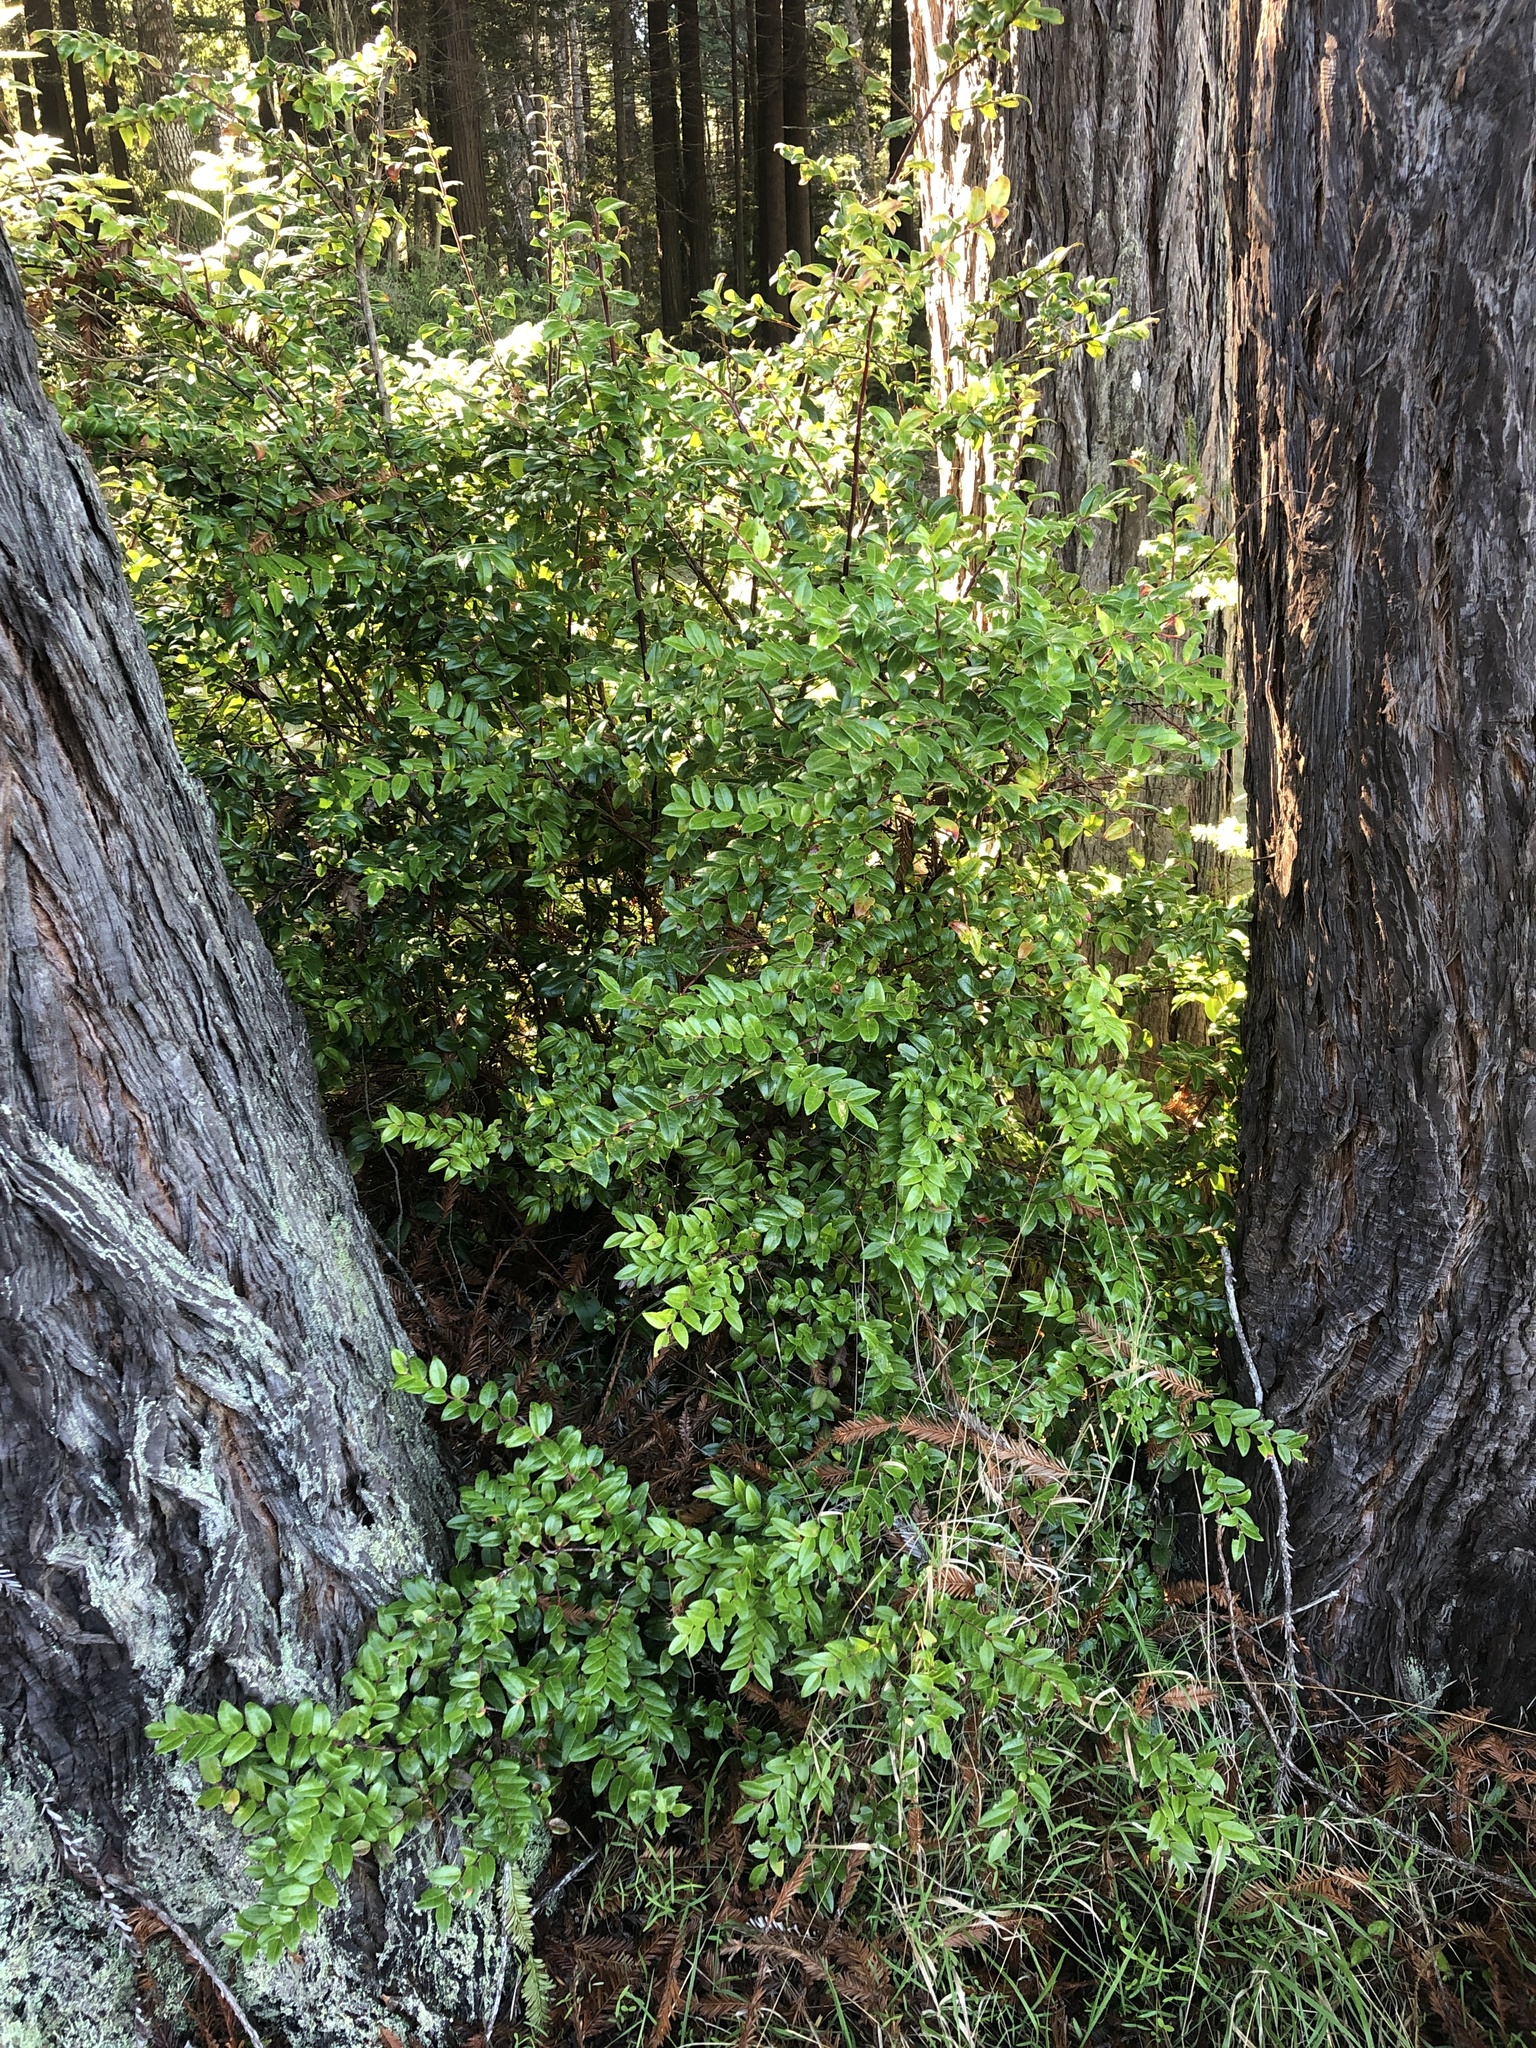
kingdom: Plantae
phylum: Tracheophyta
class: Magnoliopsida
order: Ericales
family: Ericaceae
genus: Vaccinium
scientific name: Vaccinium ovatum
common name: California-huckleberry
